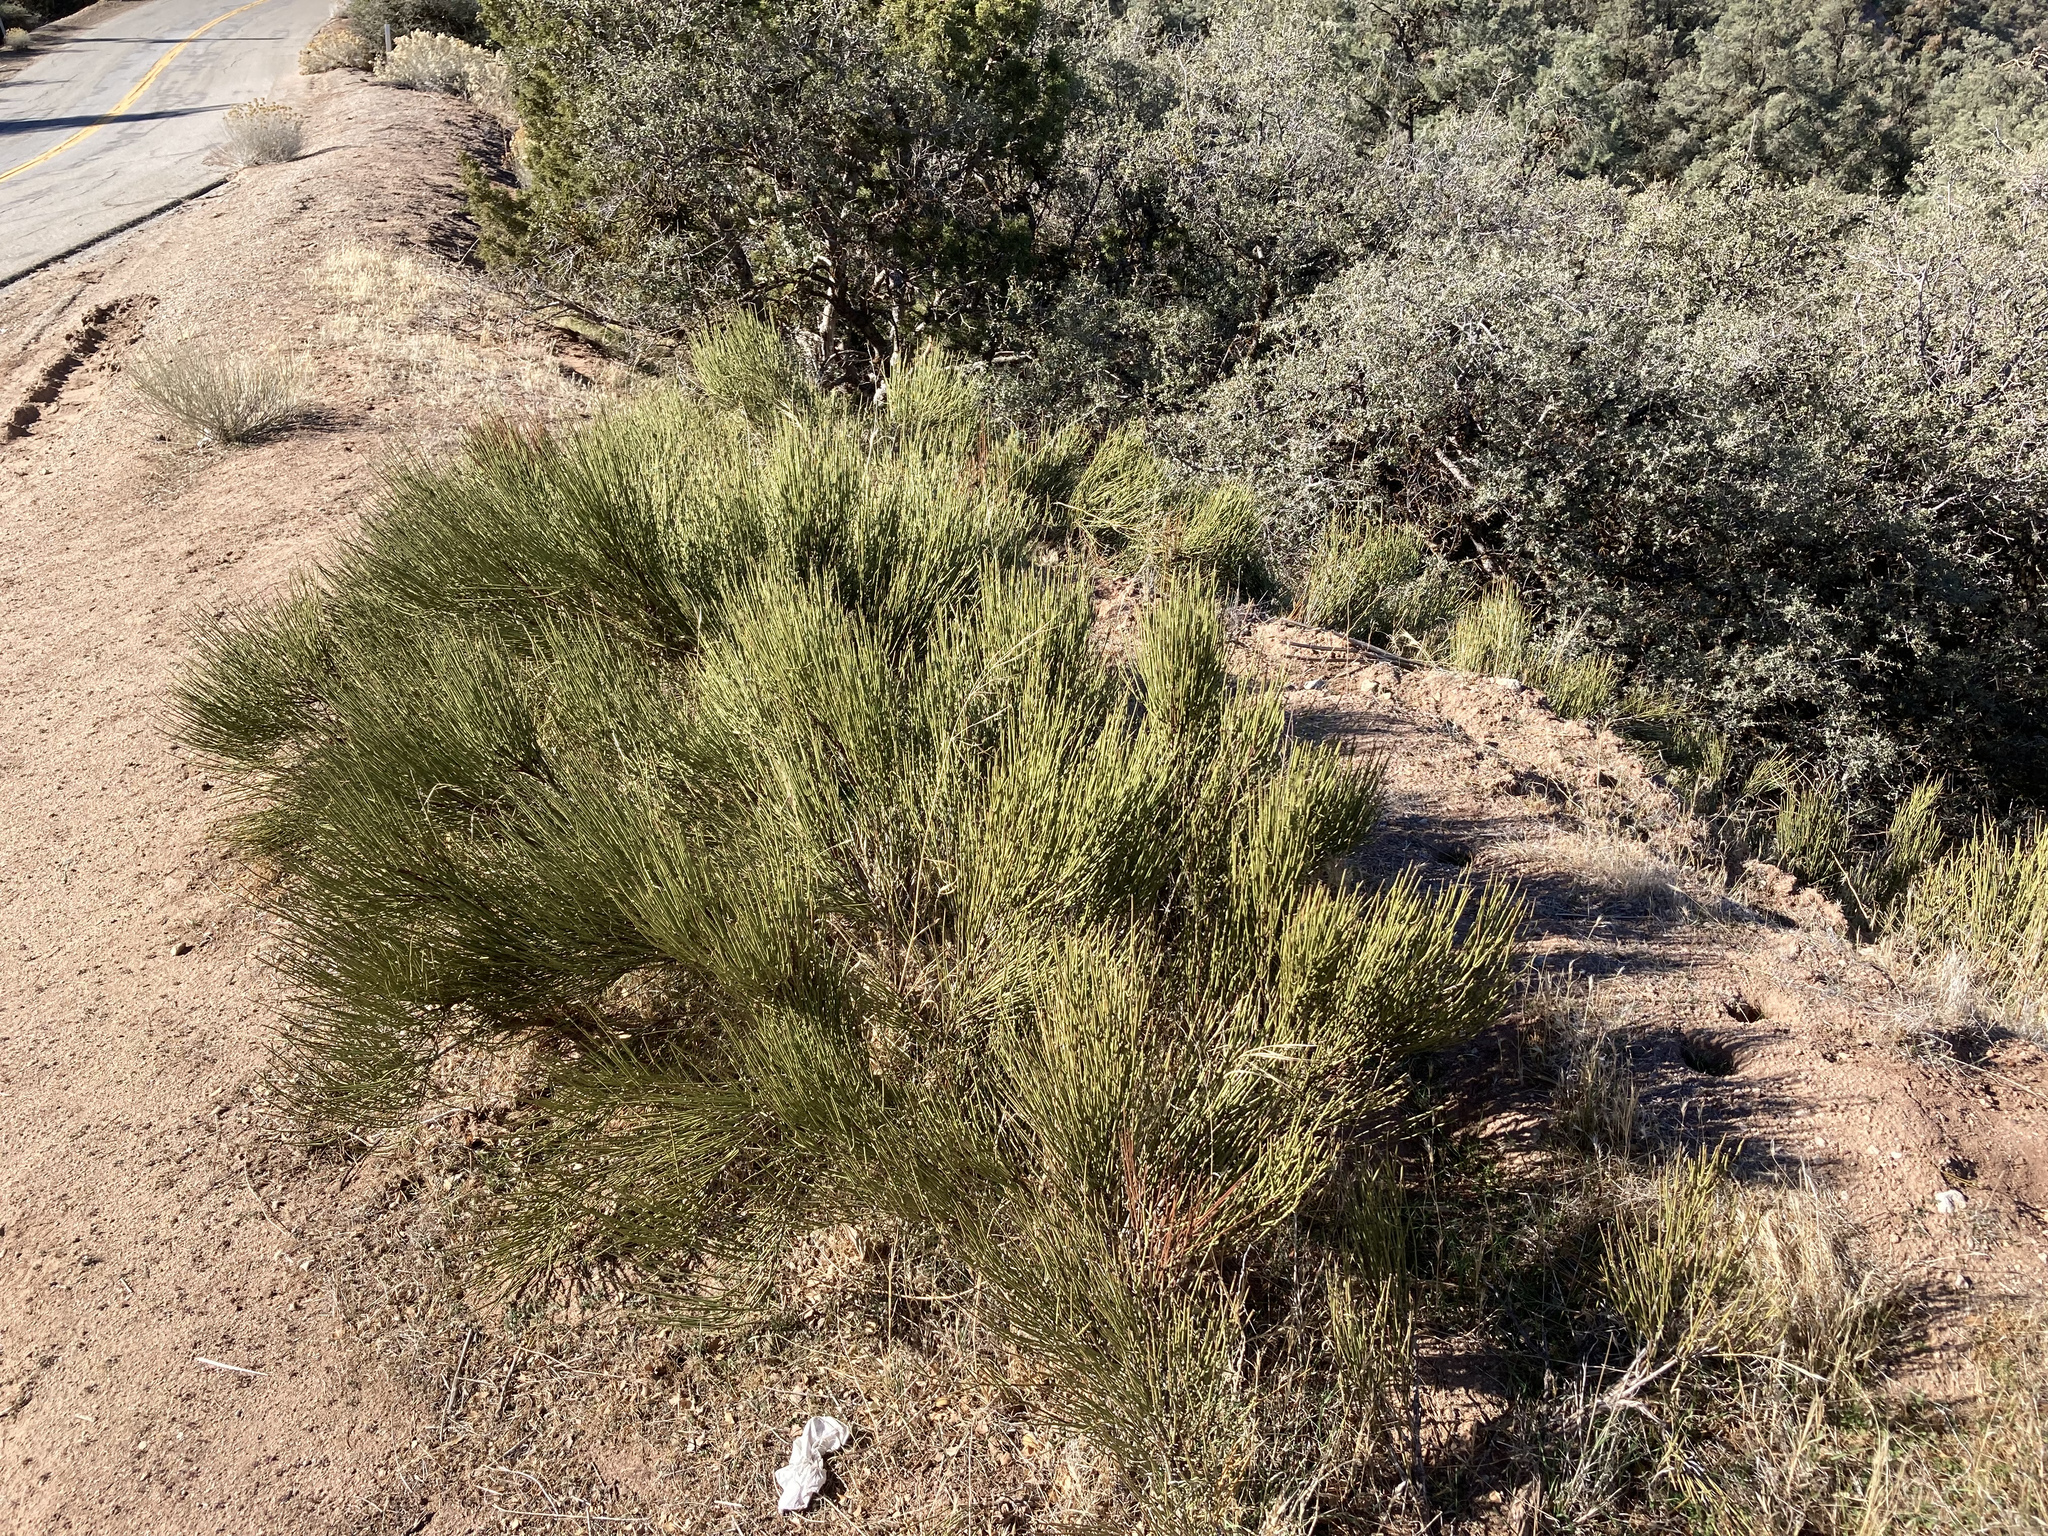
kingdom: Plantae
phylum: Tracheophyta
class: Gnetopsida
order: Ephedrales
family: Ephedraceae
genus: Ephedra
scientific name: Ephedra viridis
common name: Green ephedra
